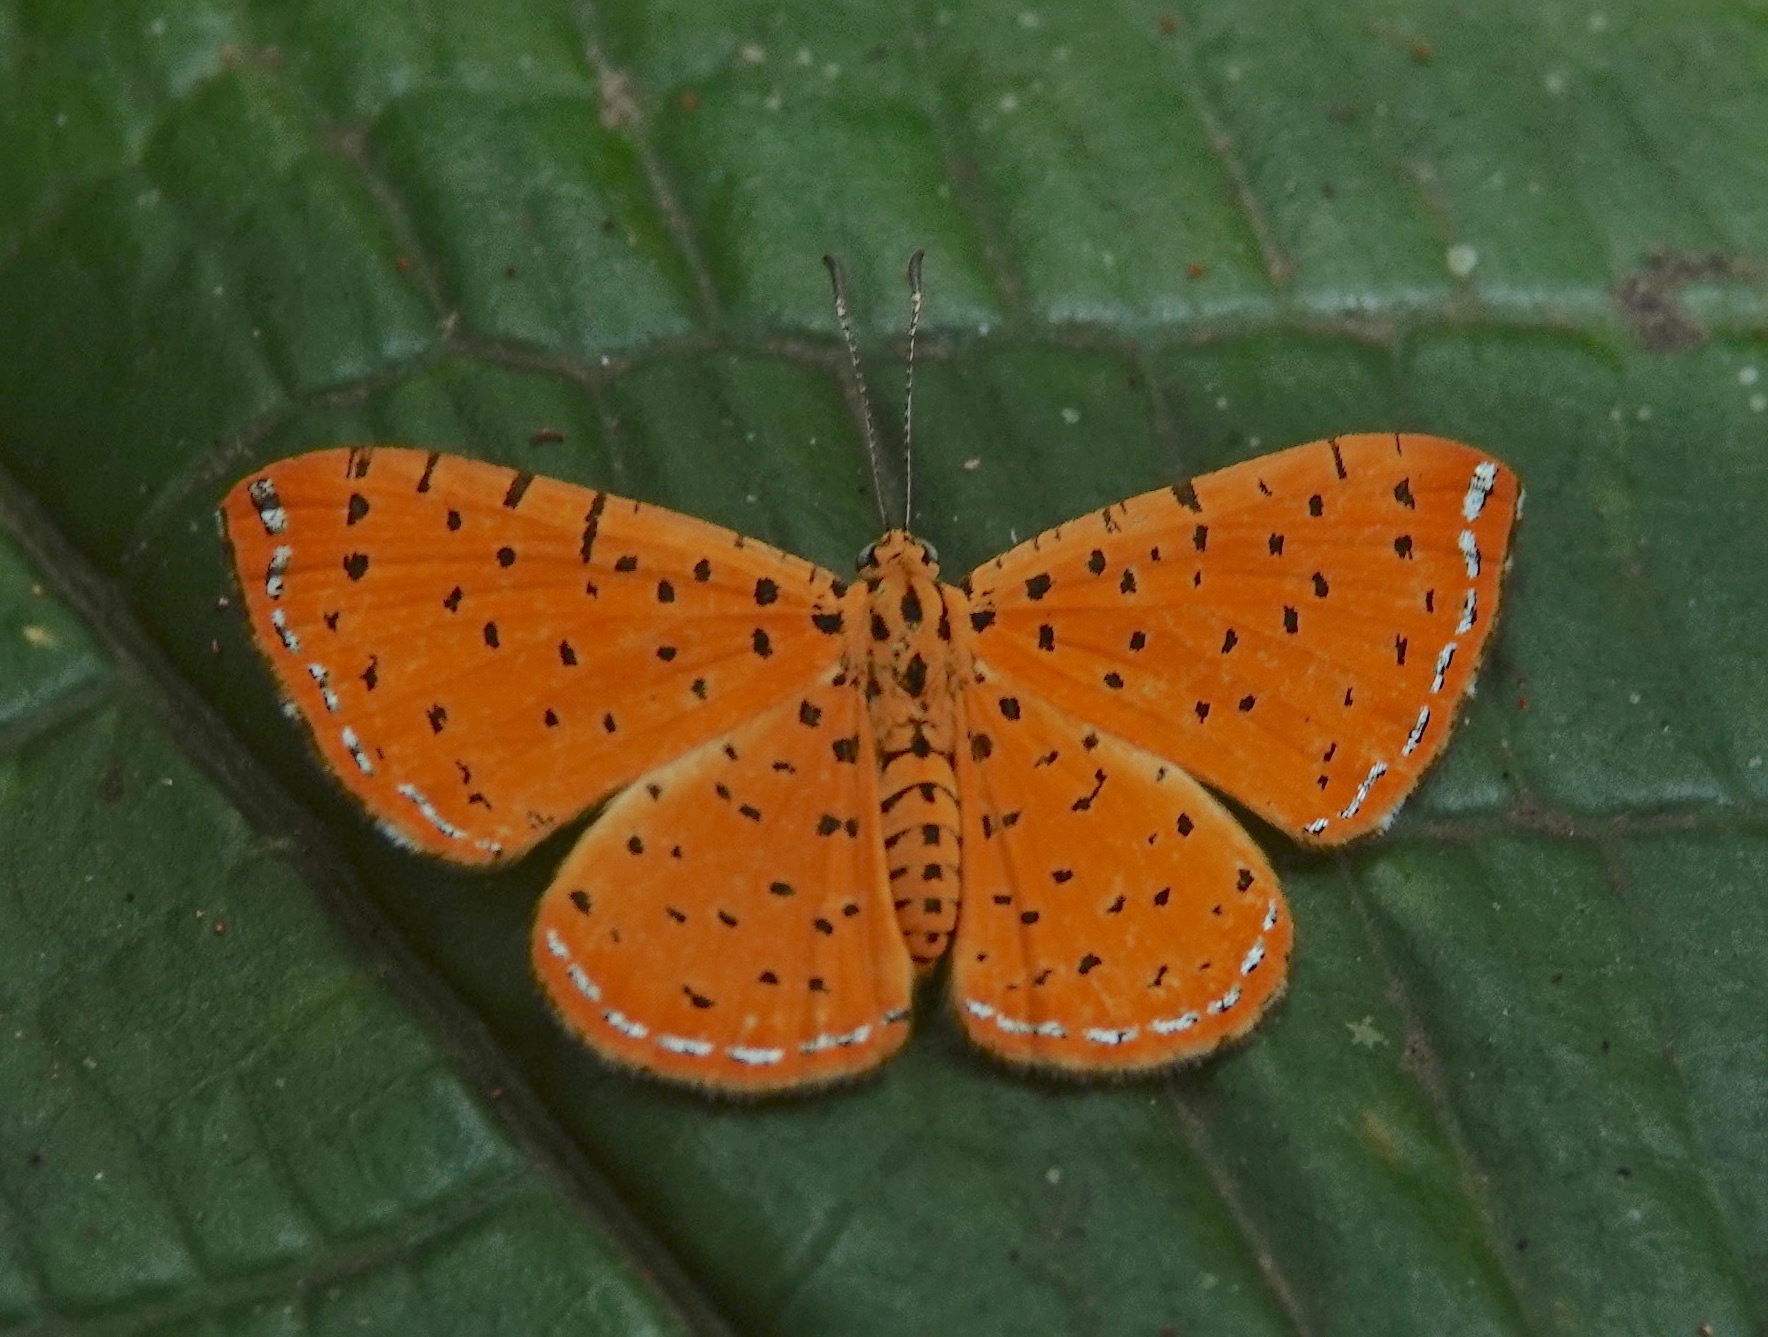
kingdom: Animalia
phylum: Arthropoda
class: Insecta
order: Lepidoptera
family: Lycaenidae
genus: Argyrogrammana
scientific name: Argyrogrammana sublimis
